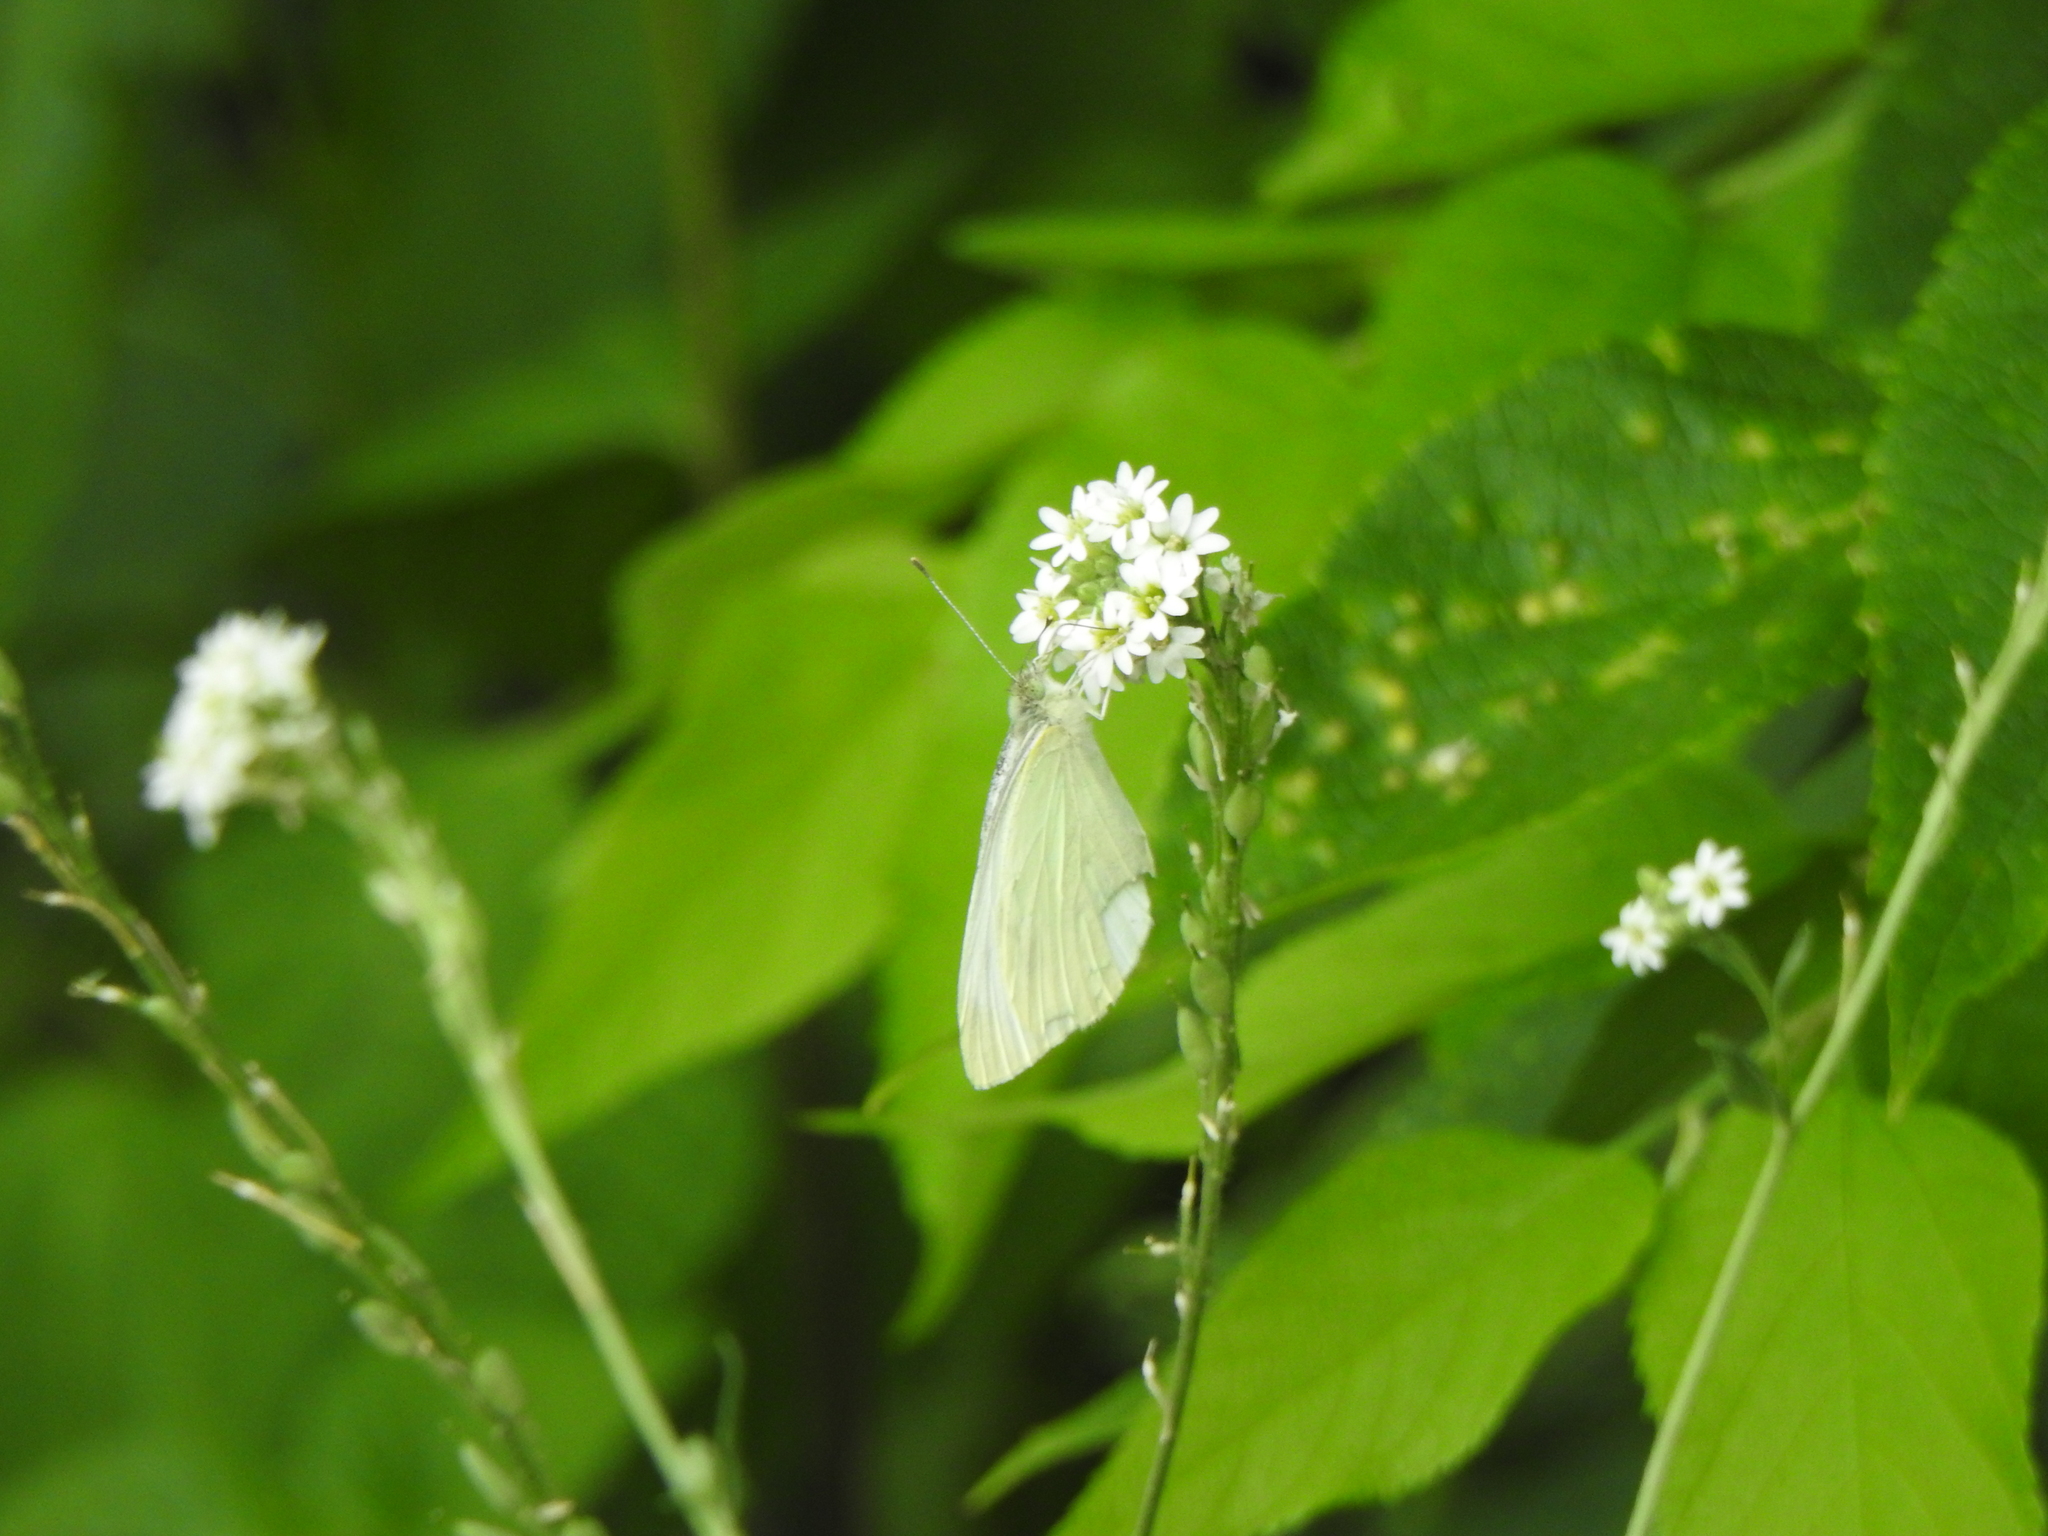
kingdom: Animalia
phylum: Arthropoda
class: Insecta
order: Lepidoptera
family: Pieridae
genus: Pieris
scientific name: Pieris rapae
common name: Small white
